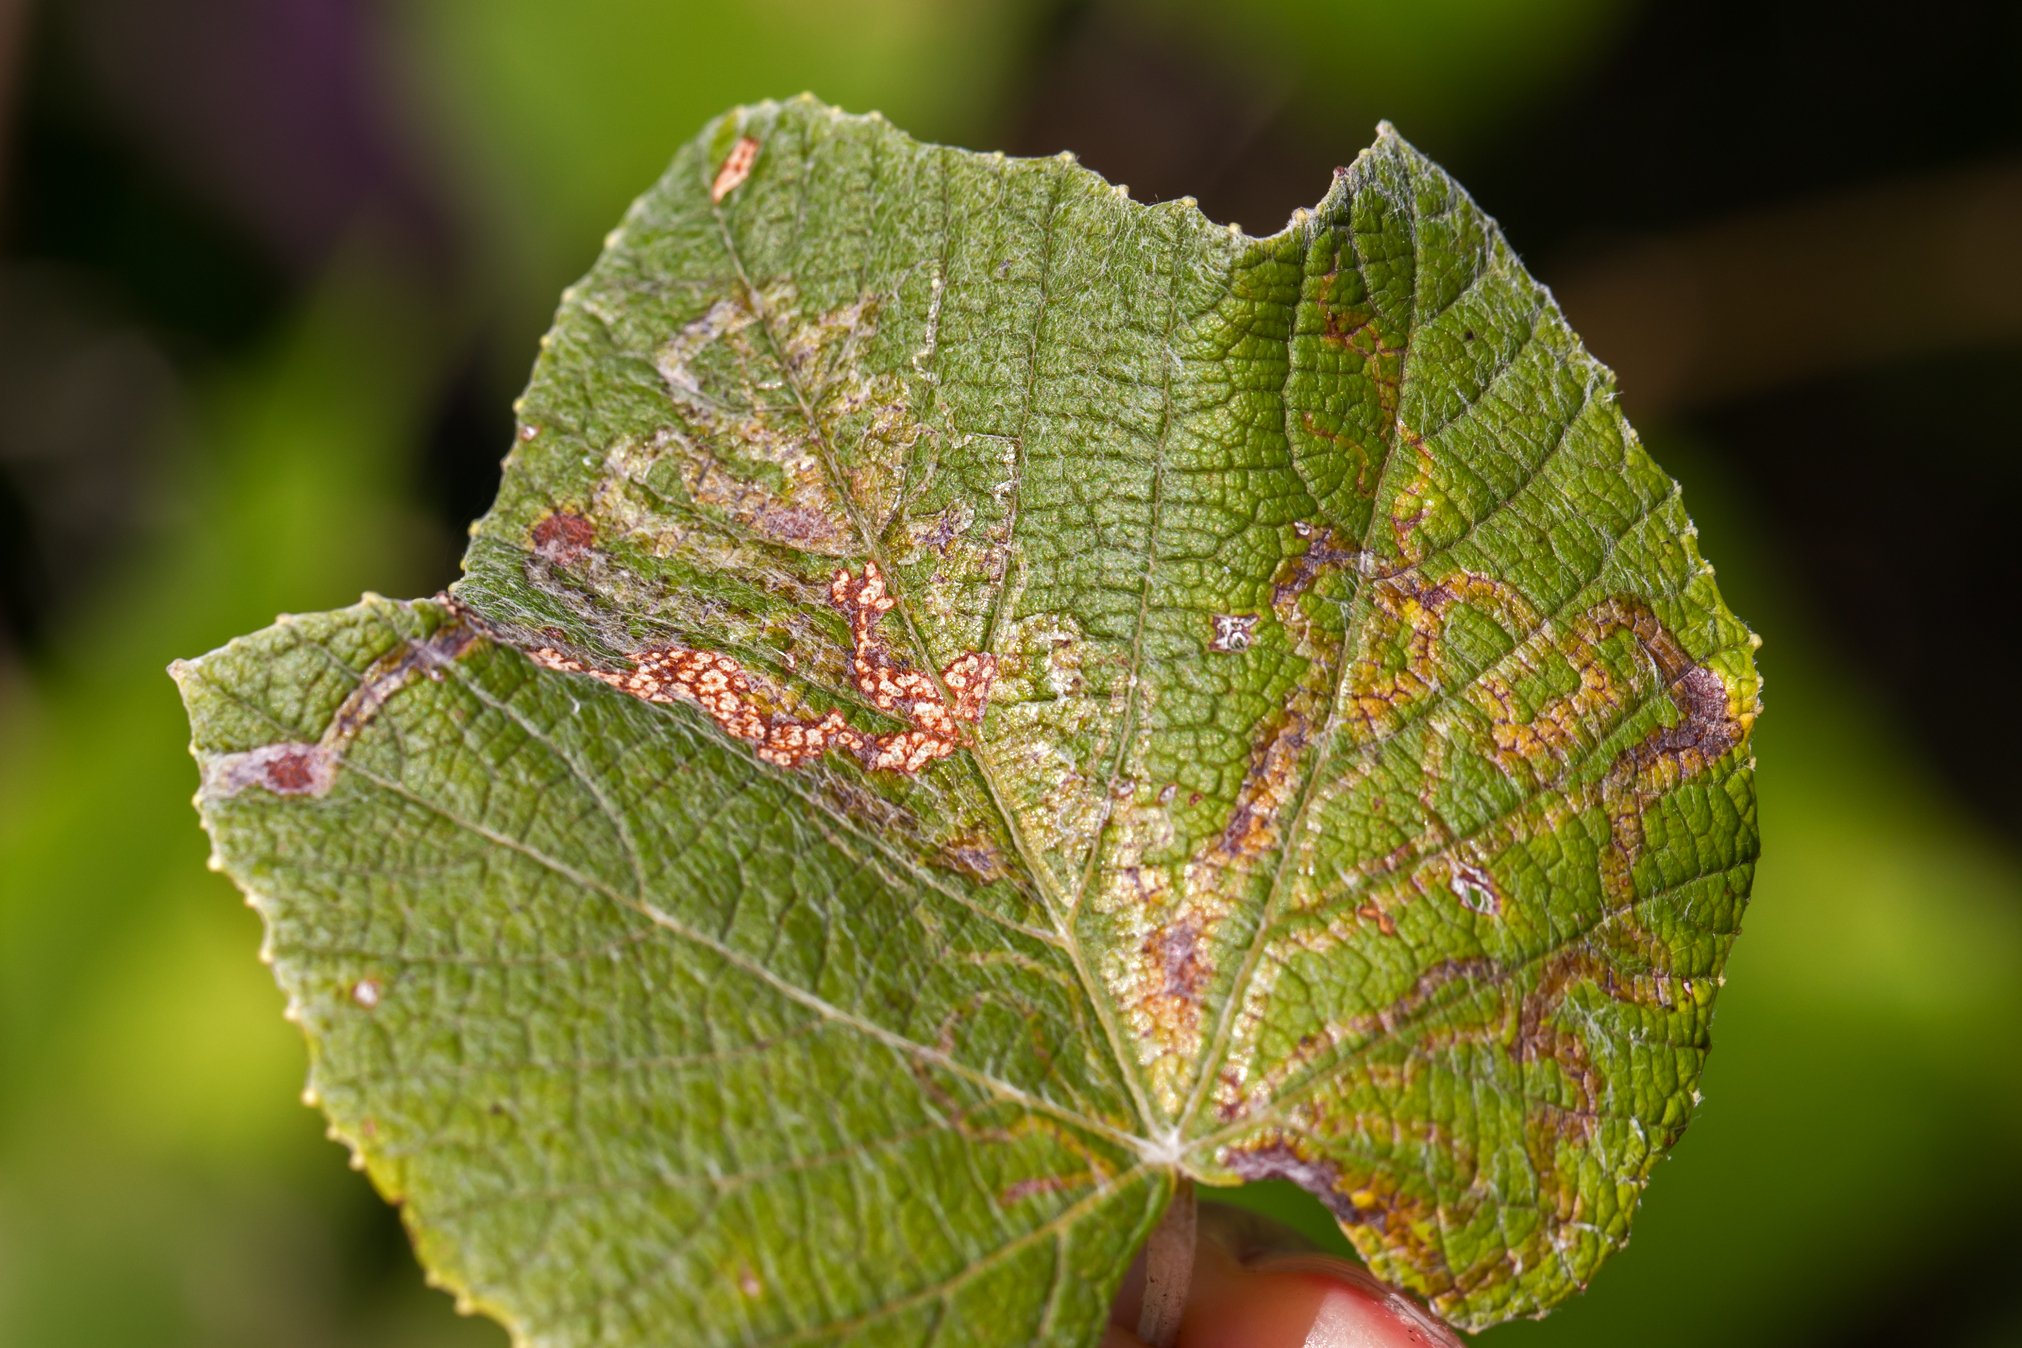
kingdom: Animalia
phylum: Arthropoda
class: Insecta
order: Lepidoptera
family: Gracillariidae
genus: Phyllocnistis
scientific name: Phyllocnistis vitegenella
